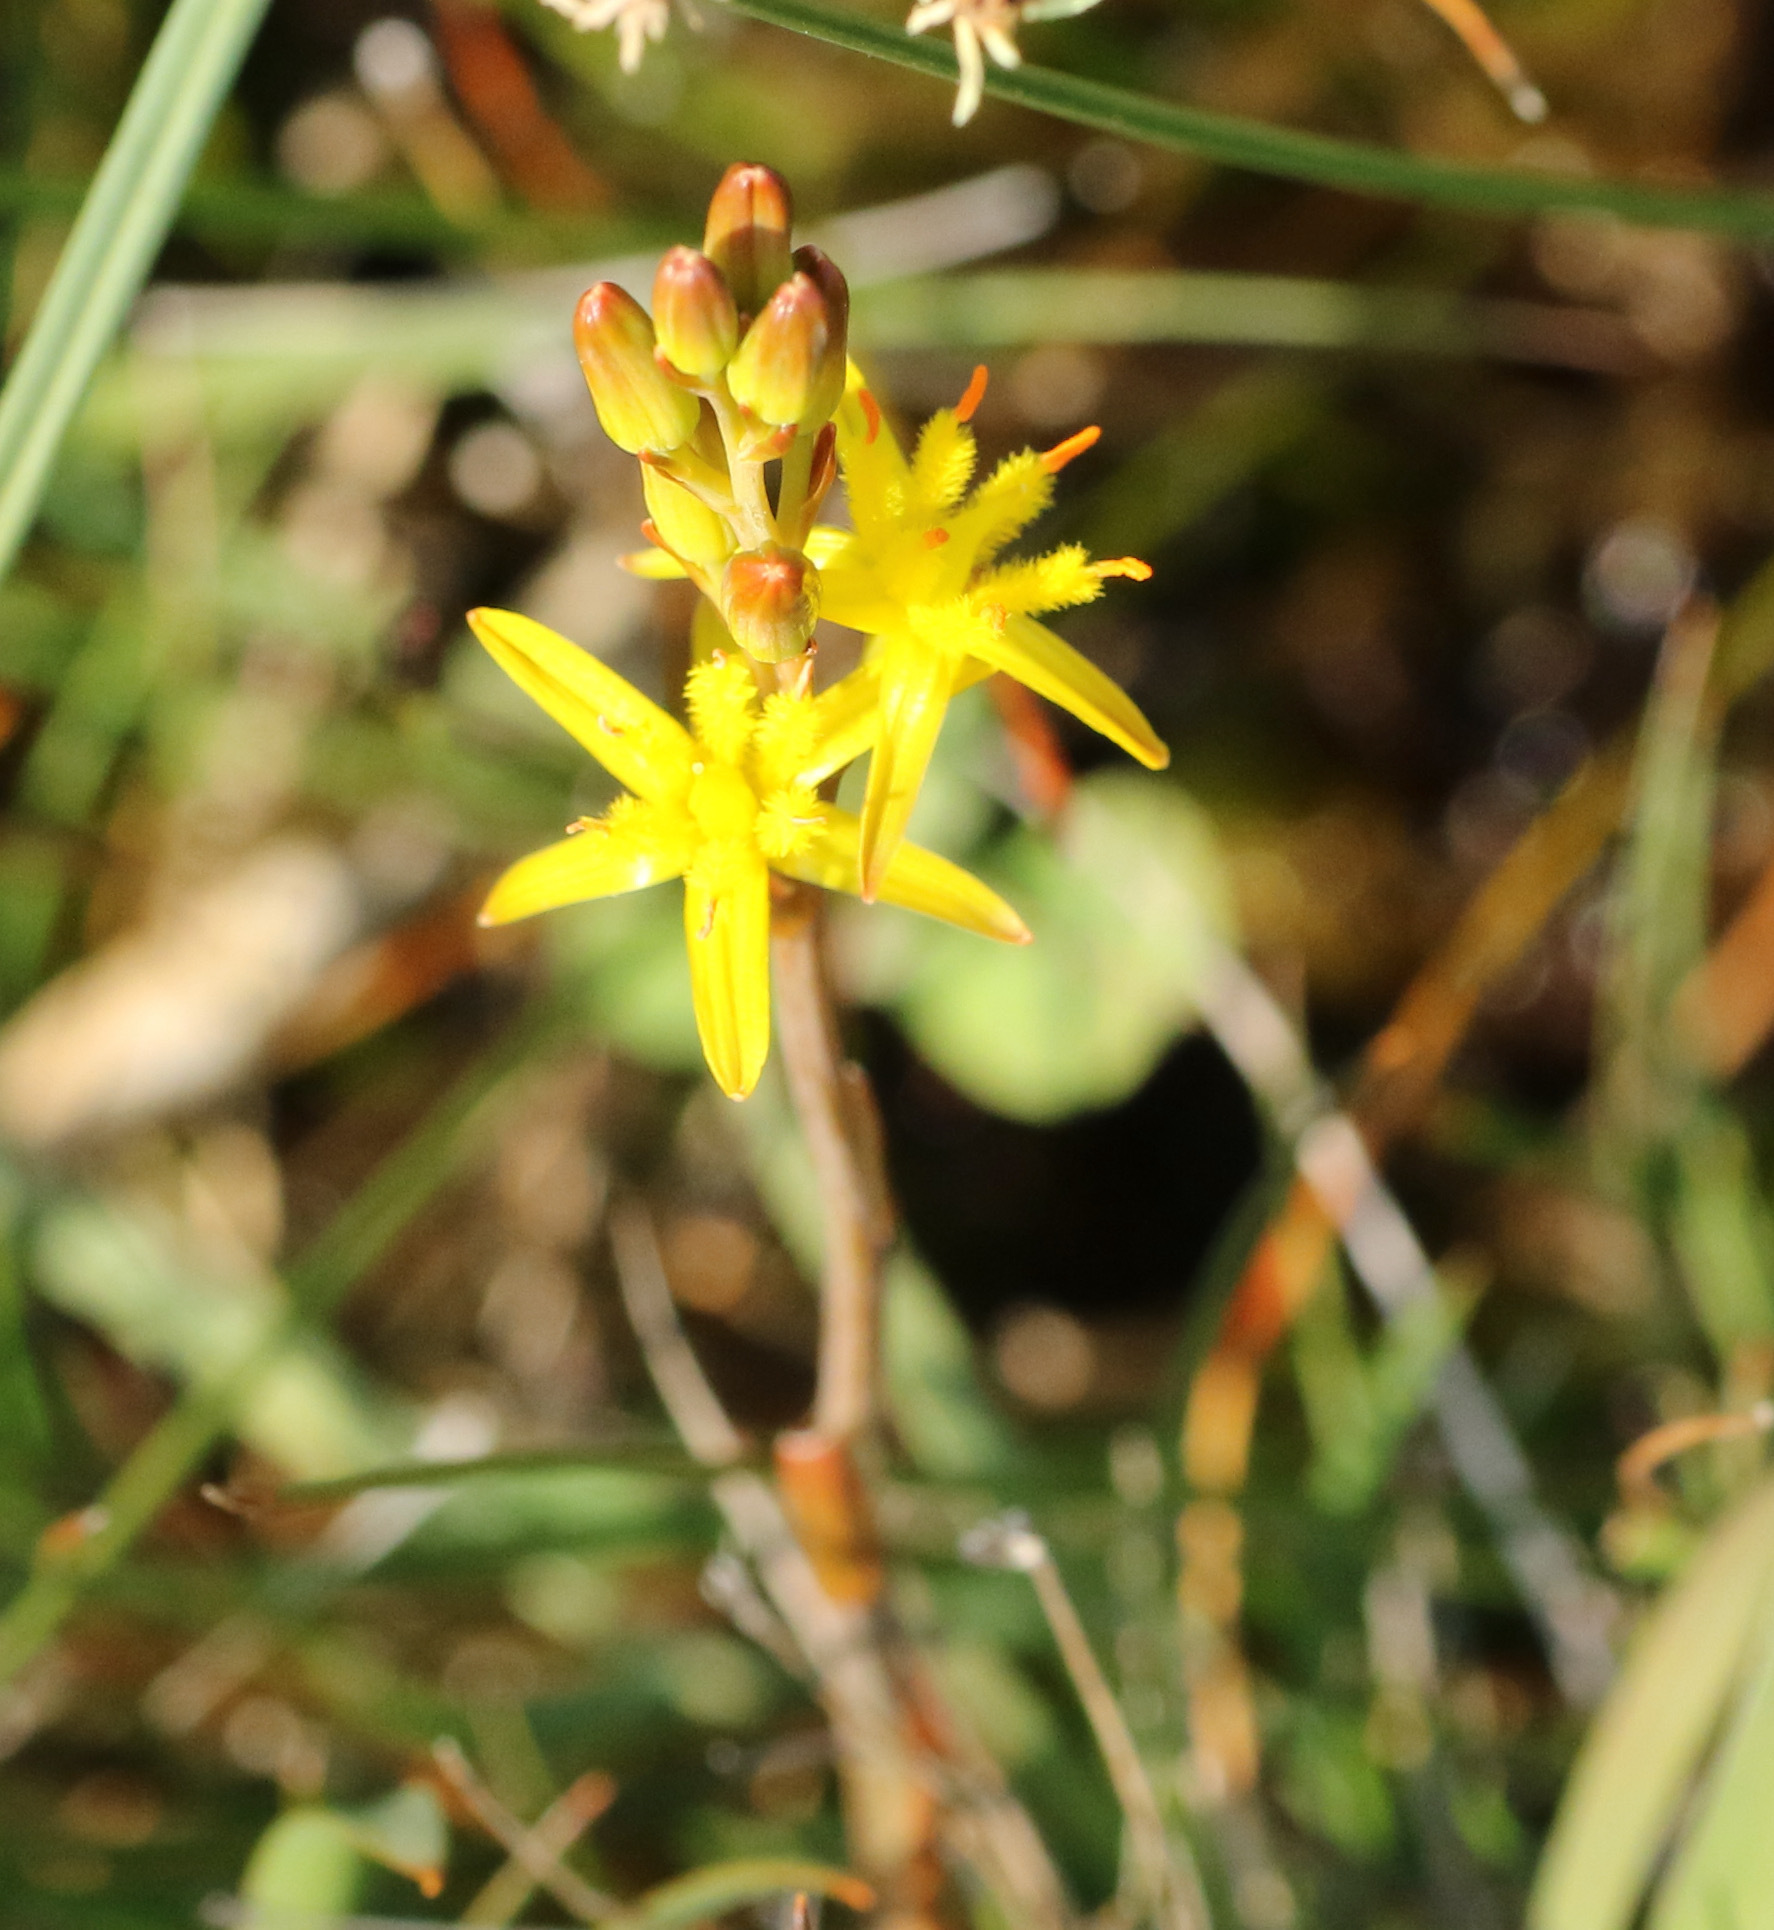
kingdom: Plantae
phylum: Tracheophyta
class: Liliopsida
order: Dioscoreales
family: Nartheciaceae
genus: Narthecium
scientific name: Narthecium ossifragum
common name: Bog asphodel
